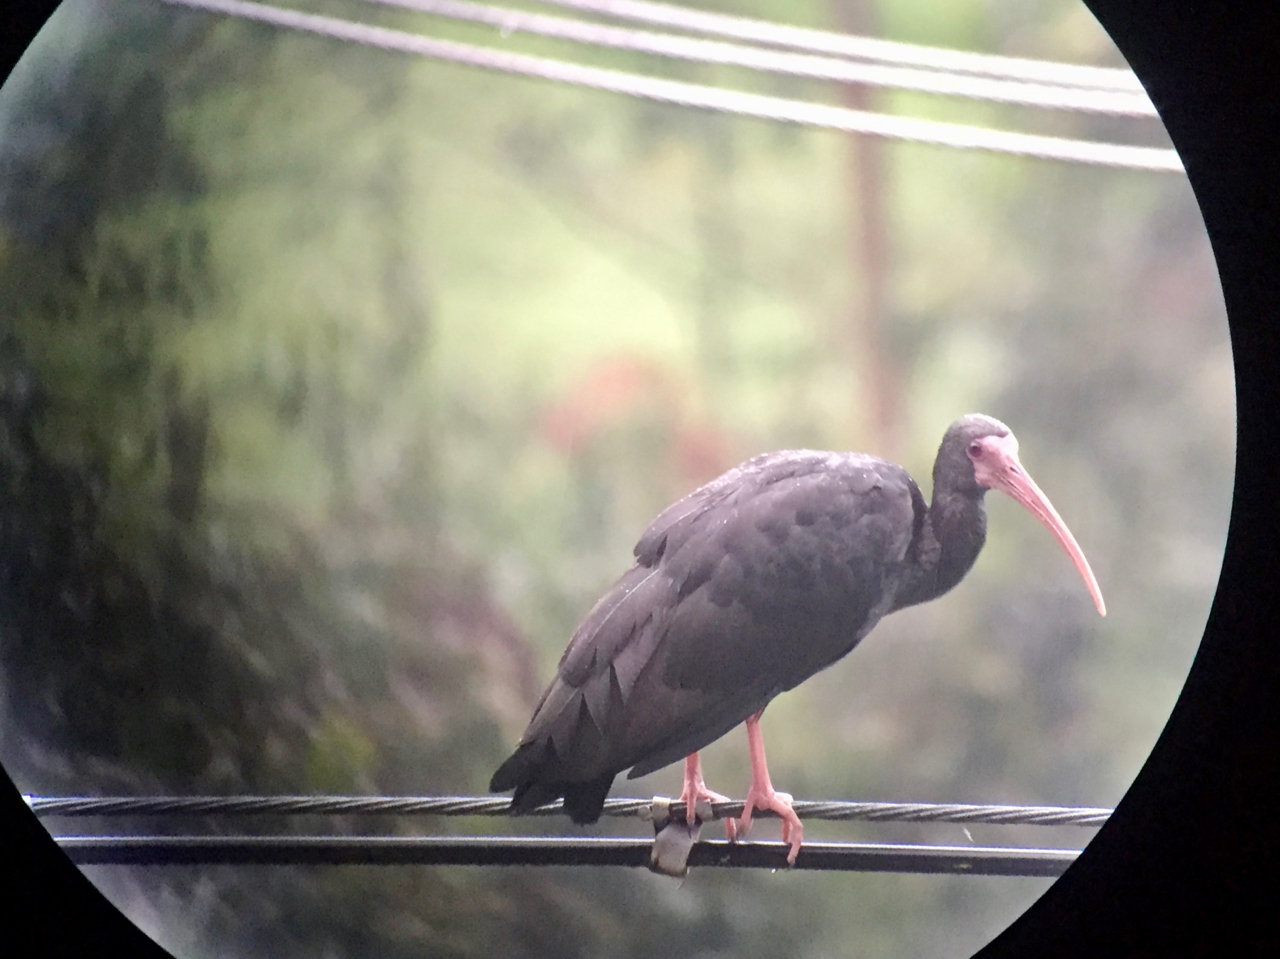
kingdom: Animalia
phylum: Chordata
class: Aves
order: Pelecaniformes
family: Threskiornithidae
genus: Phimosus
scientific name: Phimosus infuscatus
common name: Bare-faced ibis
